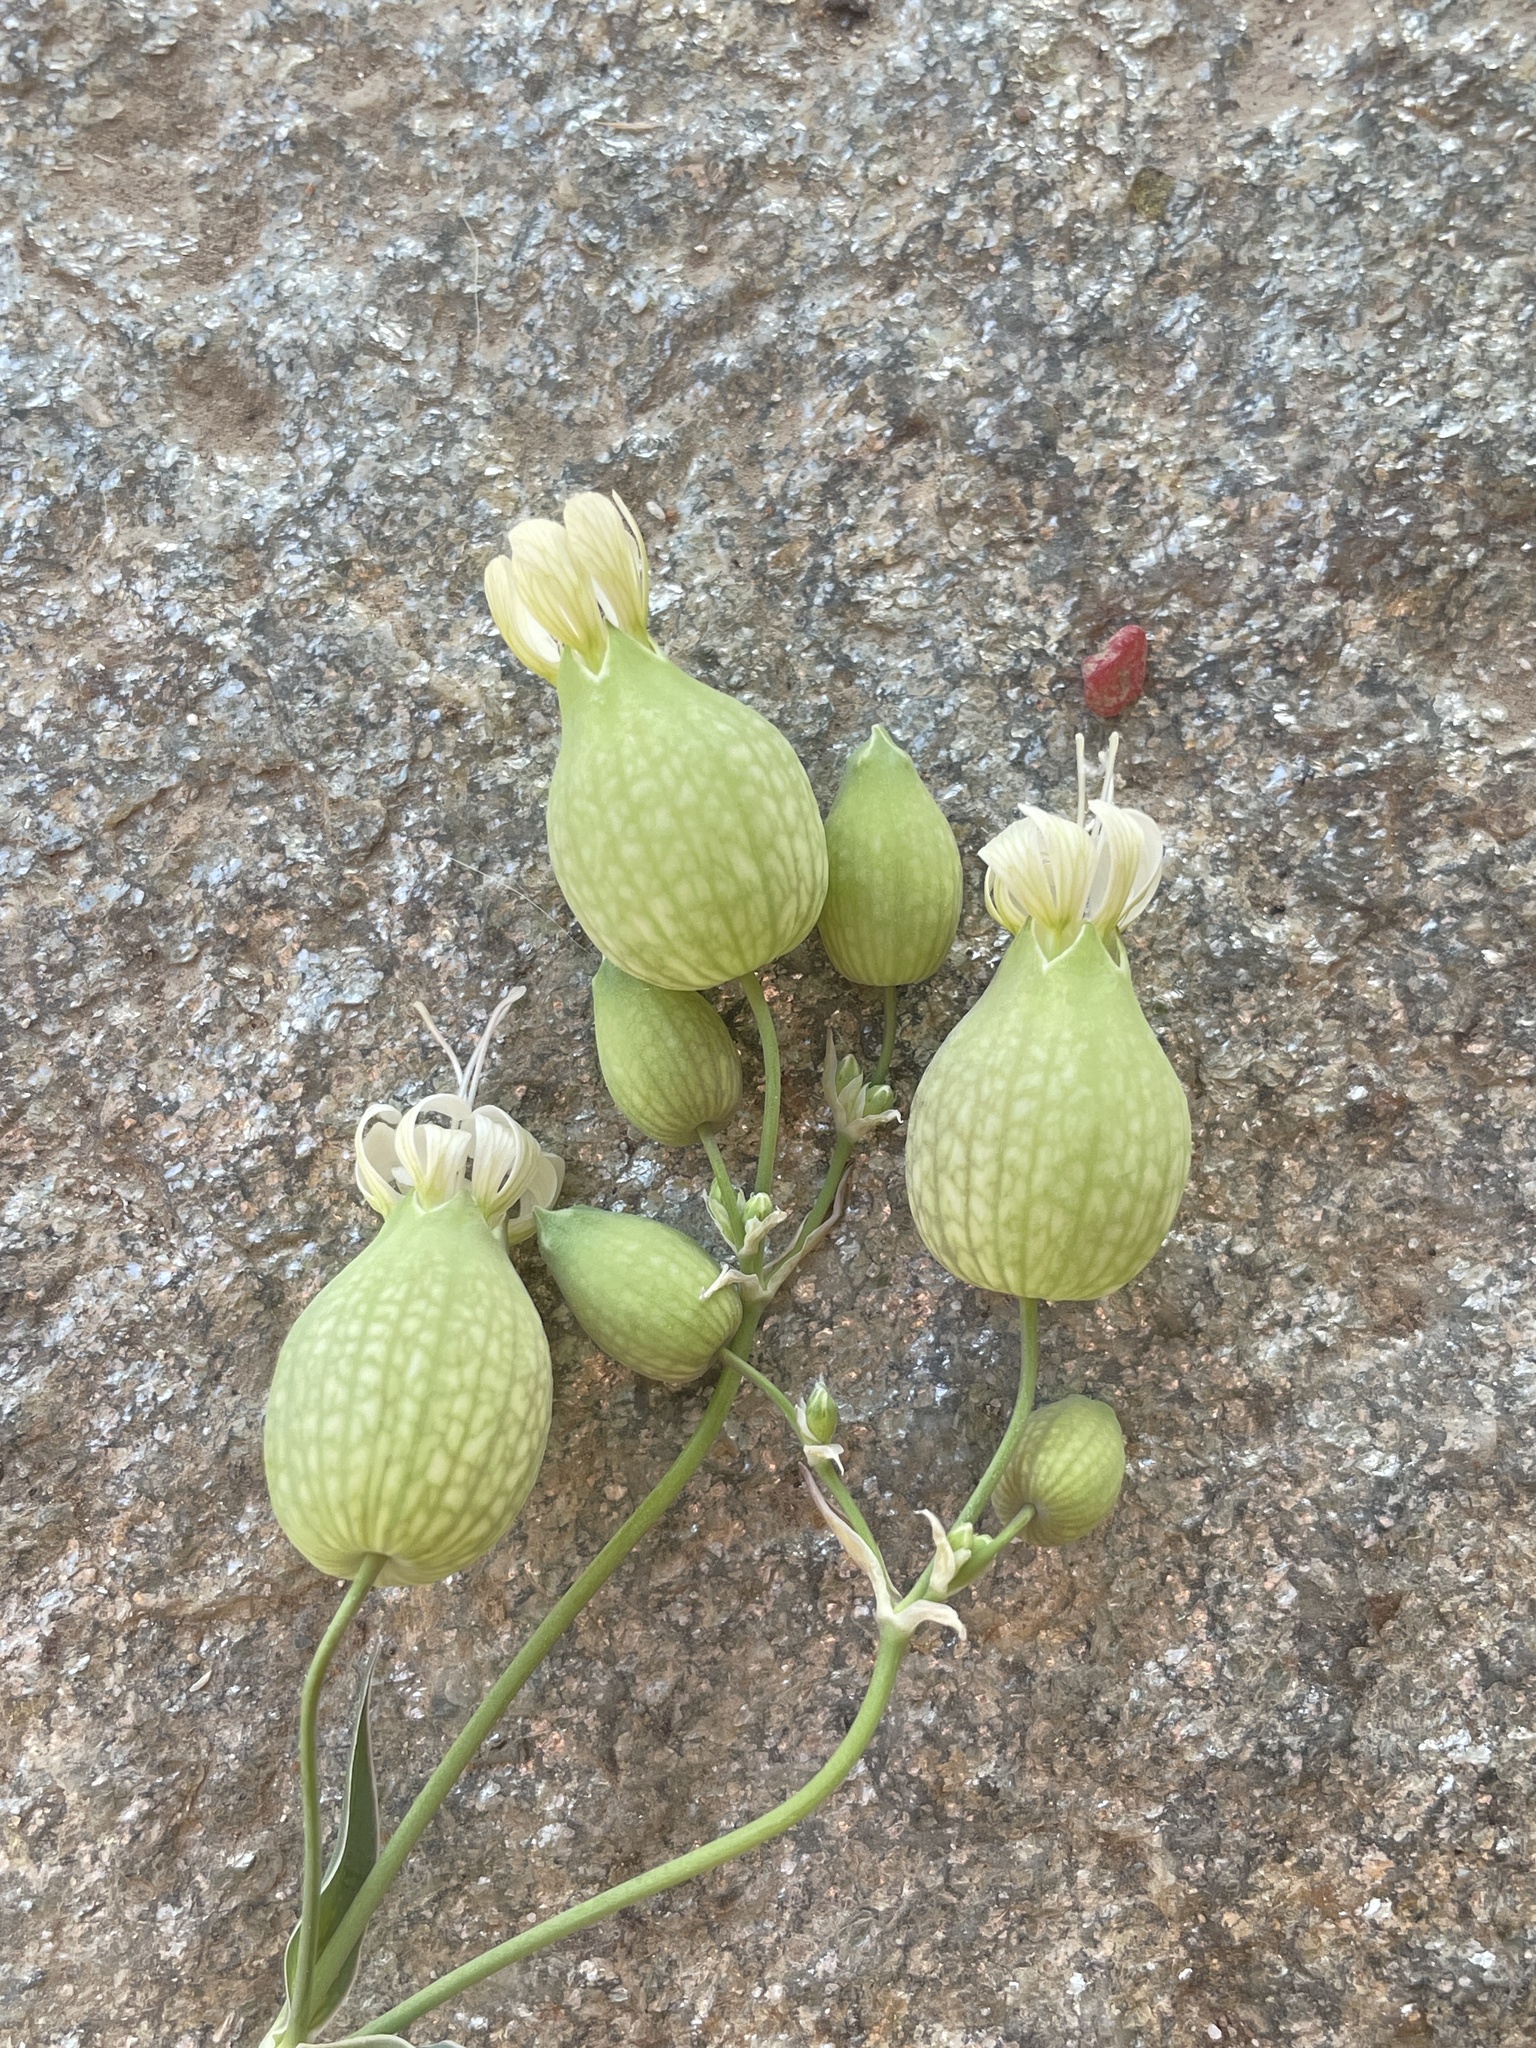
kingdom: Plantae
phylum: Tracheophyta
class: Magnoliopsida
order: Caryophyllales
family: Caryophyllaceae
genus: Silene
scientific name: Silene vulgaris
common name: Bladder campion
